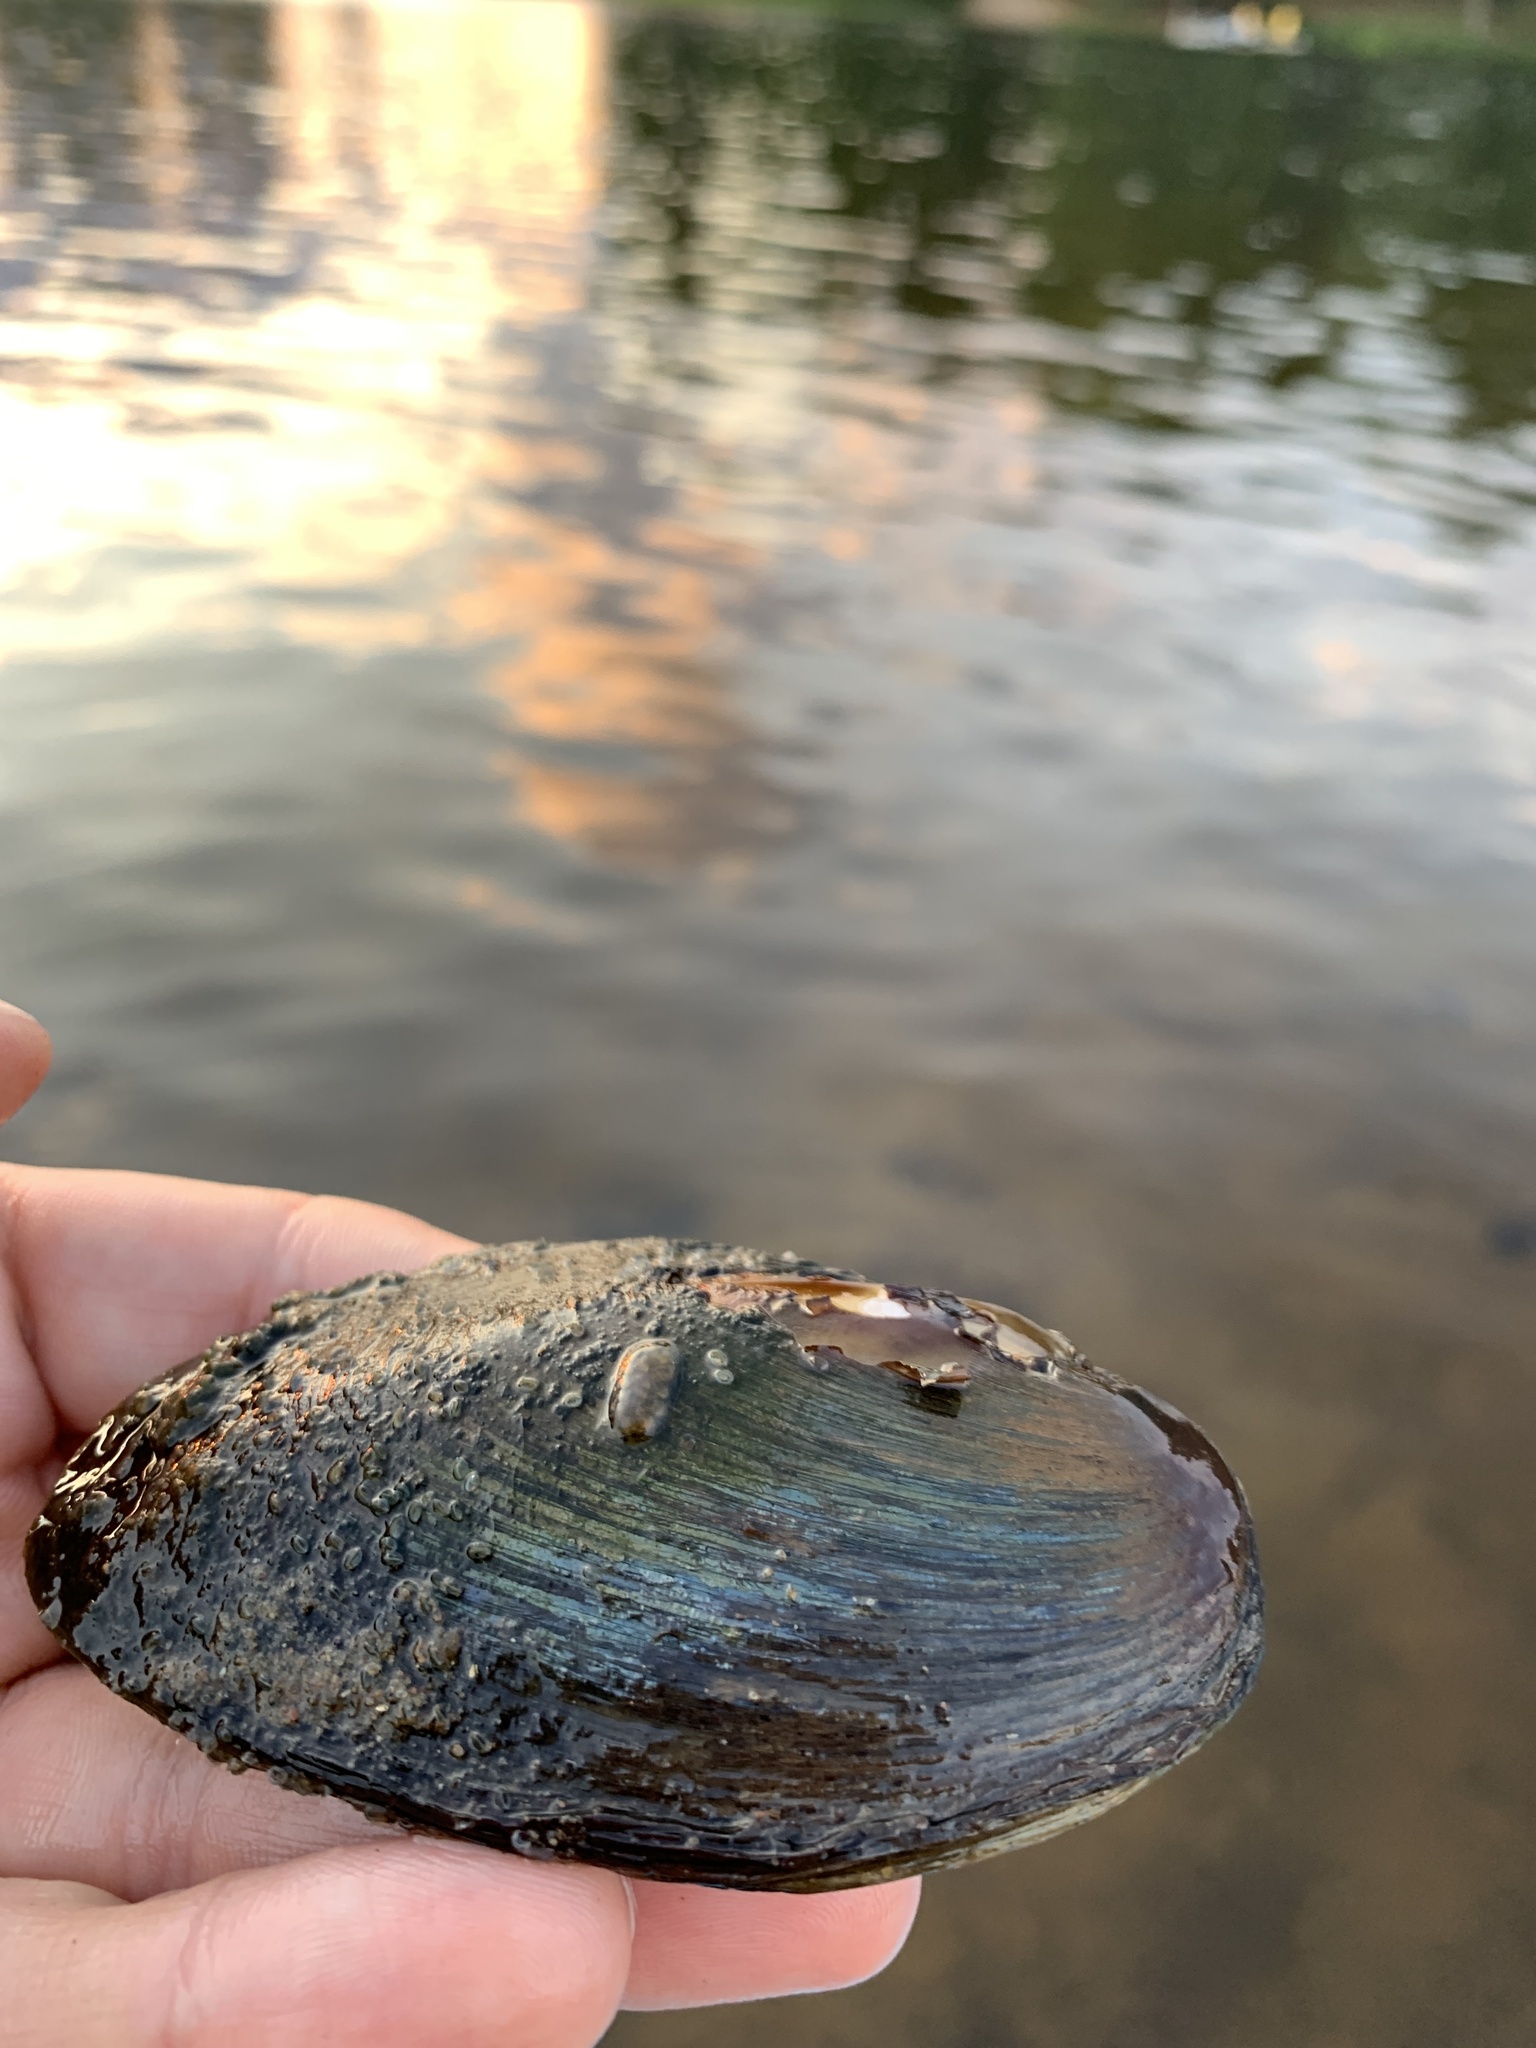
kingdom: Animalia
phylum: Mollusca
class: Bivalvia
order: Unionida
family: Unionidae
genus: Elliptio
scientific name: Elliptio complanata
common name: Eastern elliptio
